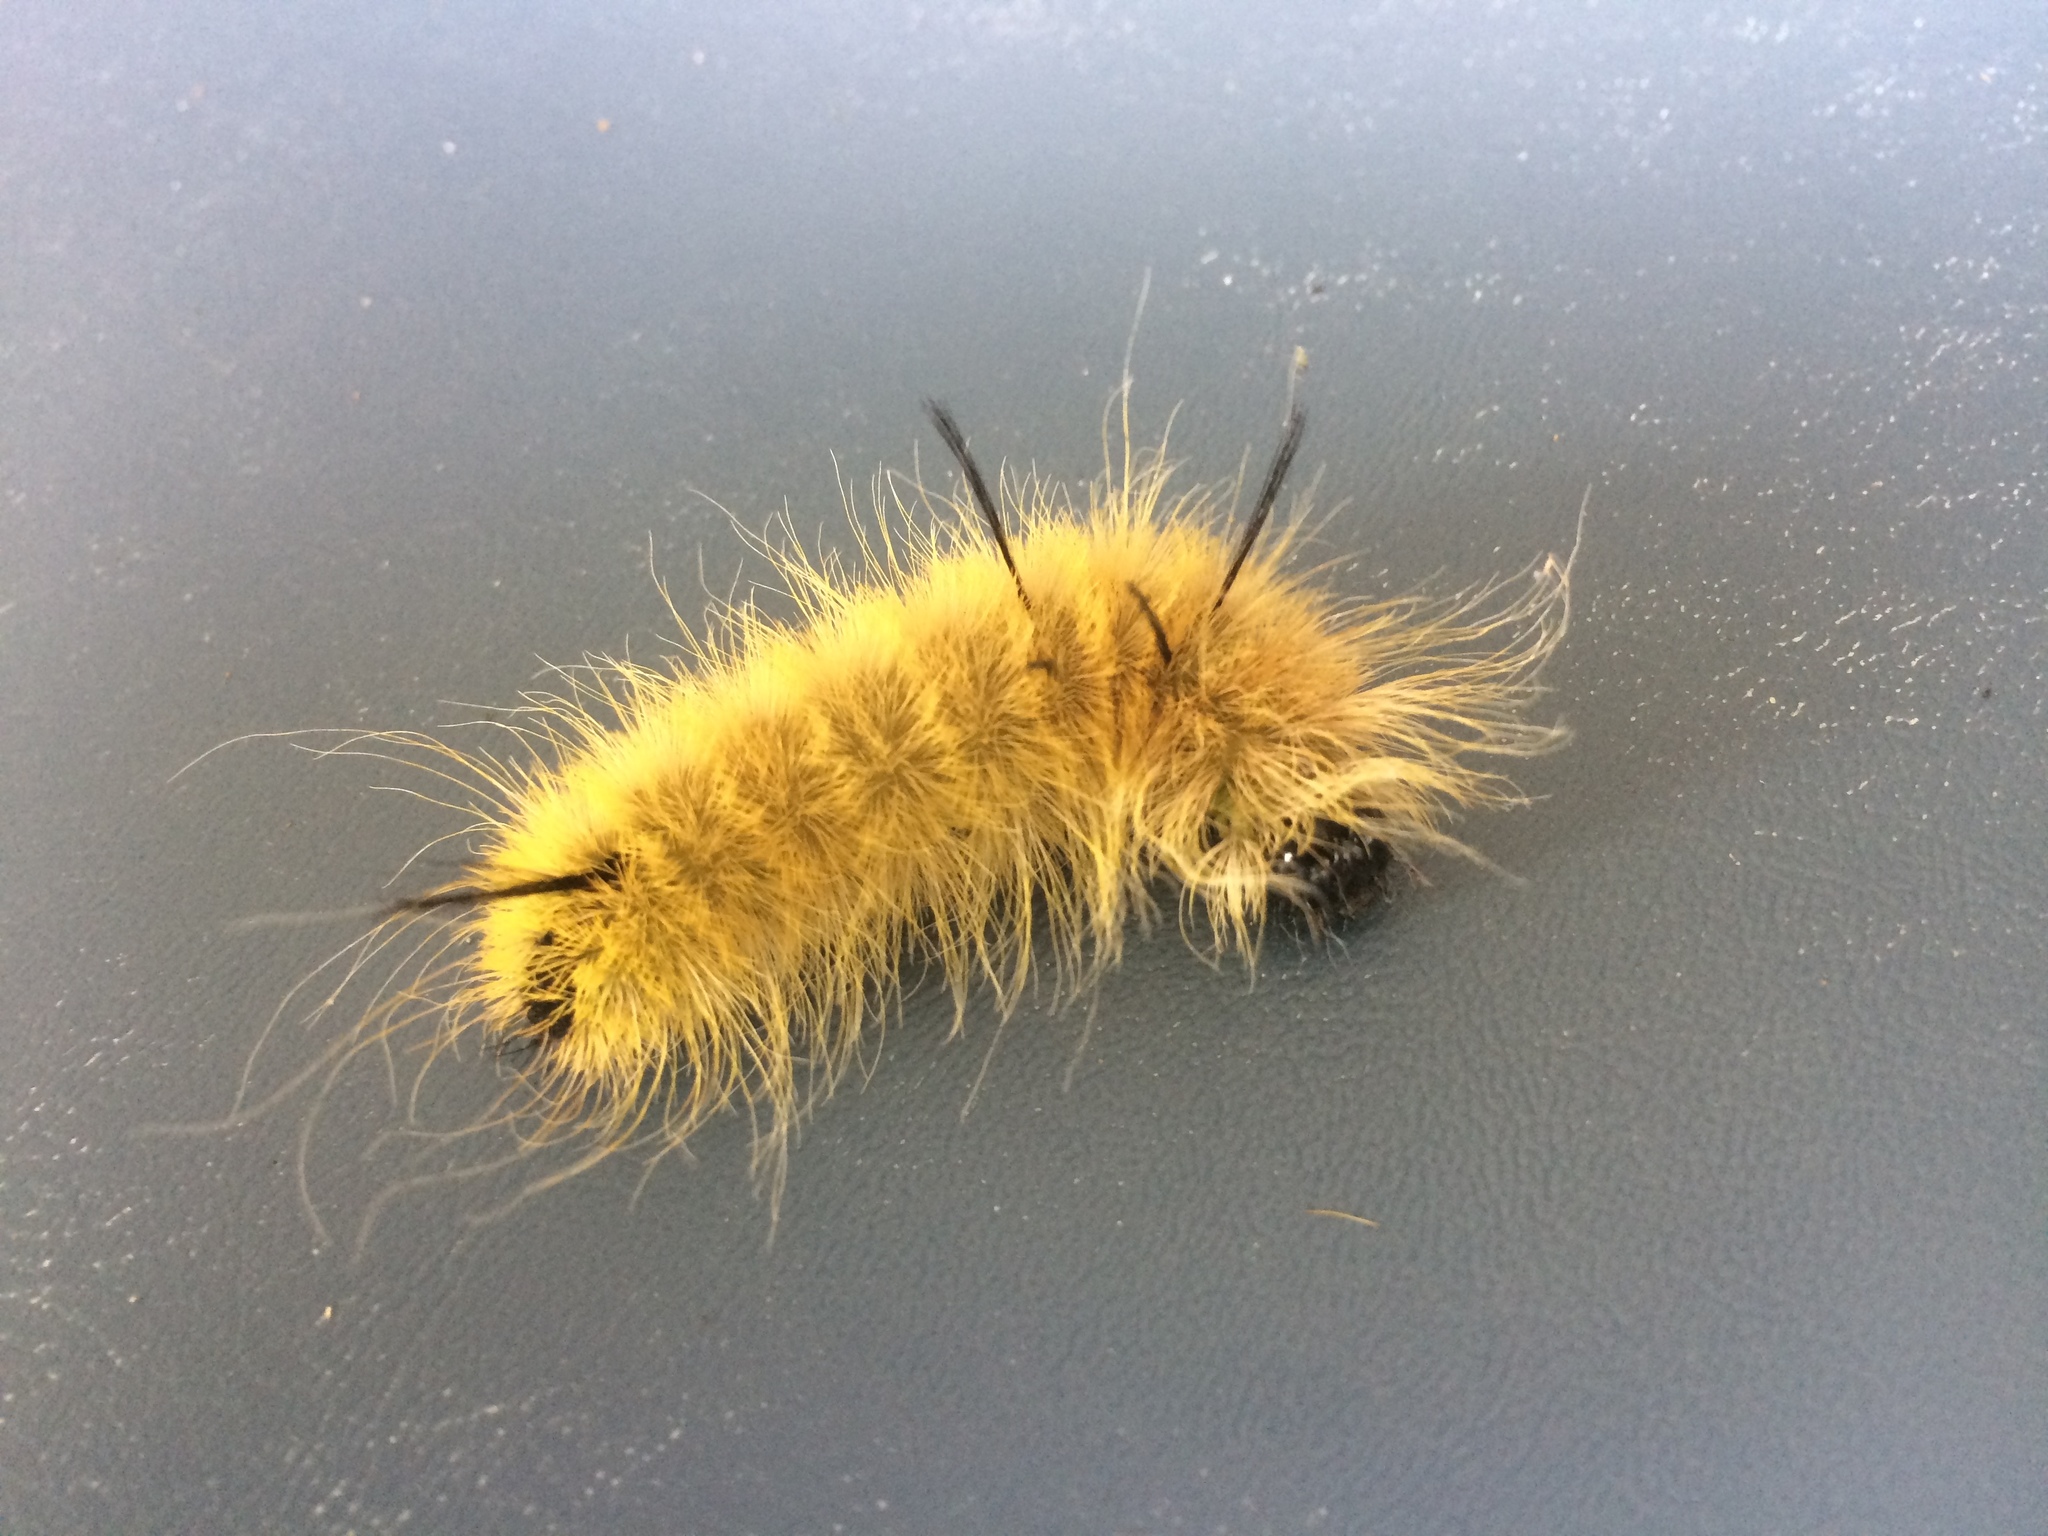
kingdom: Animalia
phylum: Arthropoda
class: Insecta
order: Lepidoptera
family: Noctuidae
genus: Acronicta
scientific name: Acronicta americana
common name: American dagger
